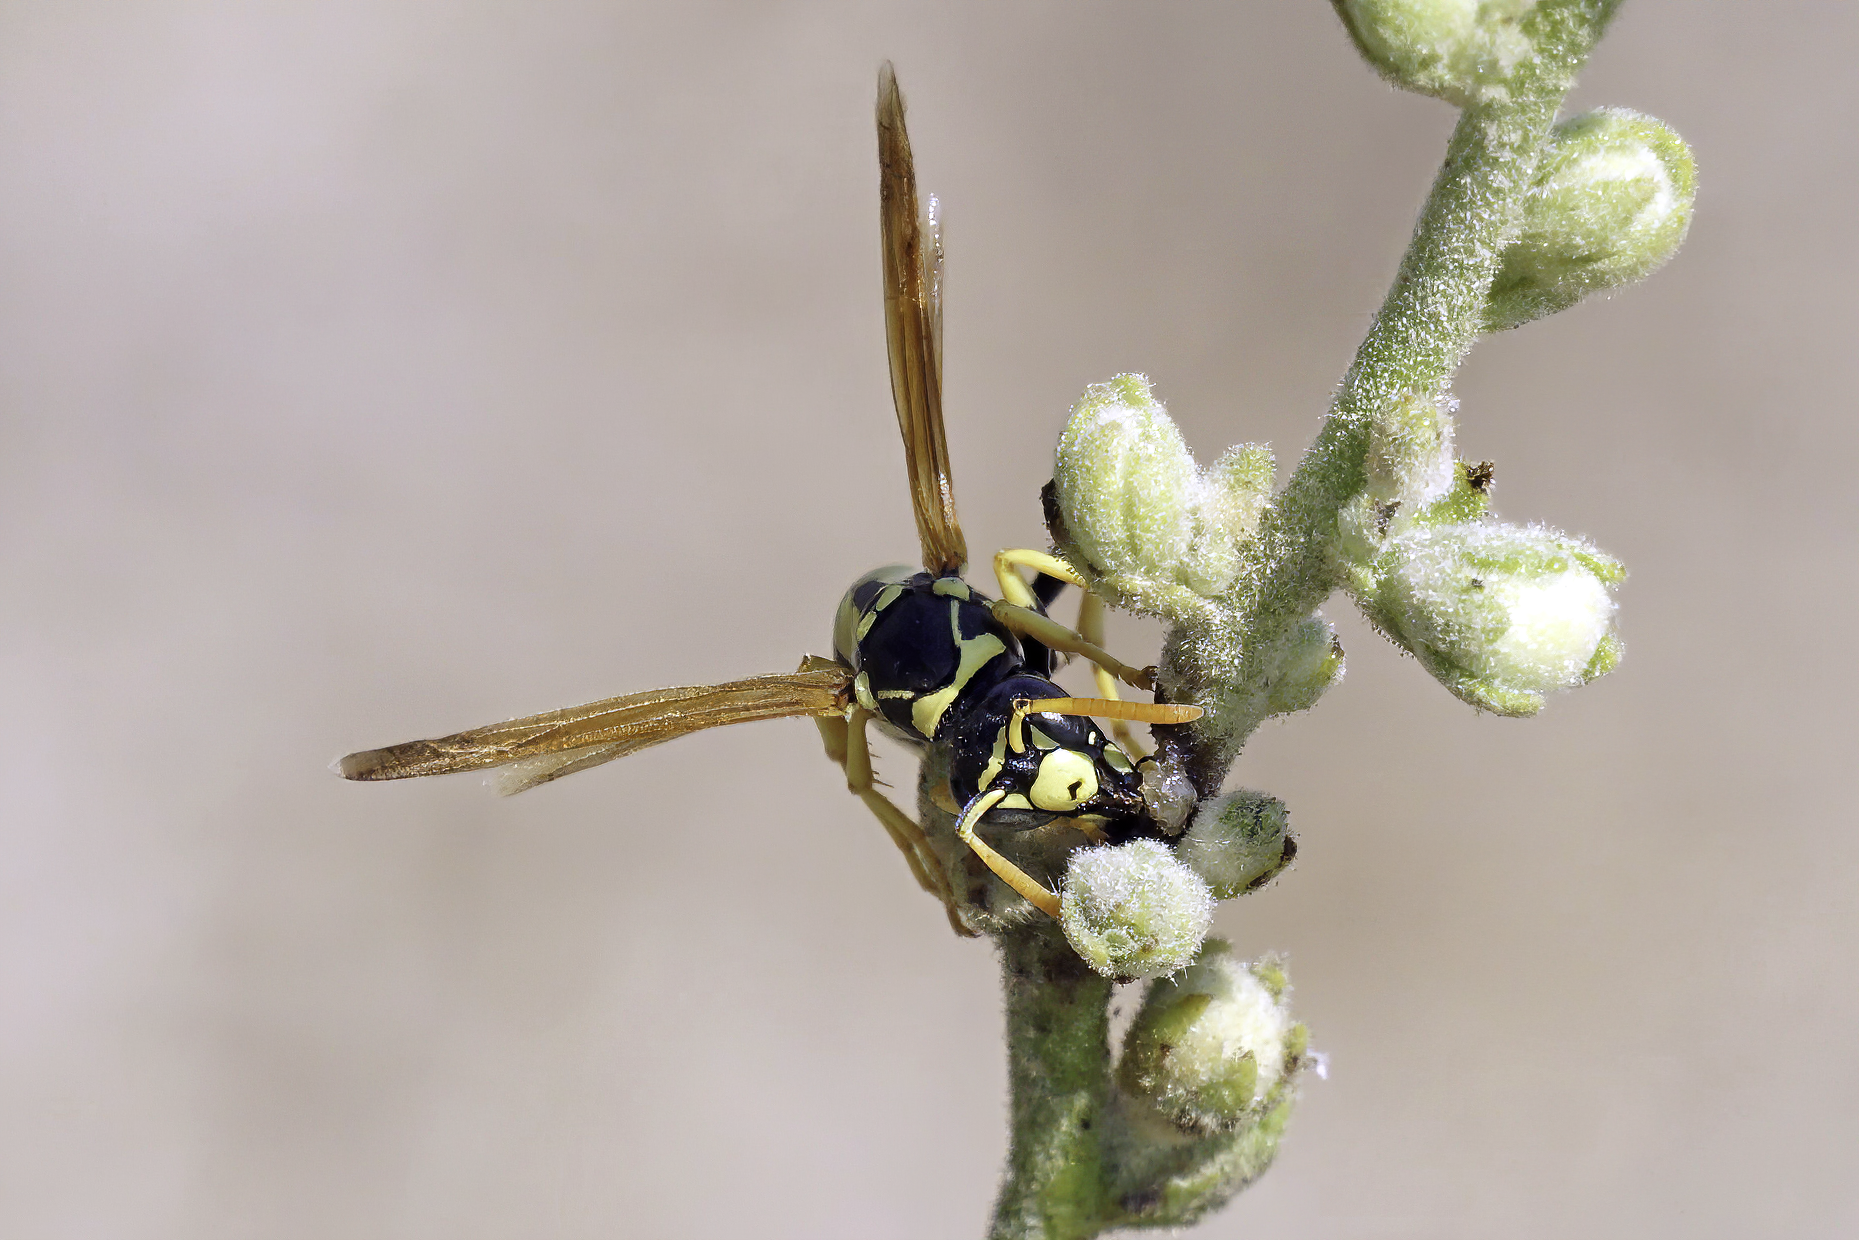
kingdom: Animalia
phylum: Arthropoda
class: Insecta
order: Hymenoptera
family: Eumenidae
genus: Polistes
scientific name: Polistes gallicus
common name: Paper wasp
